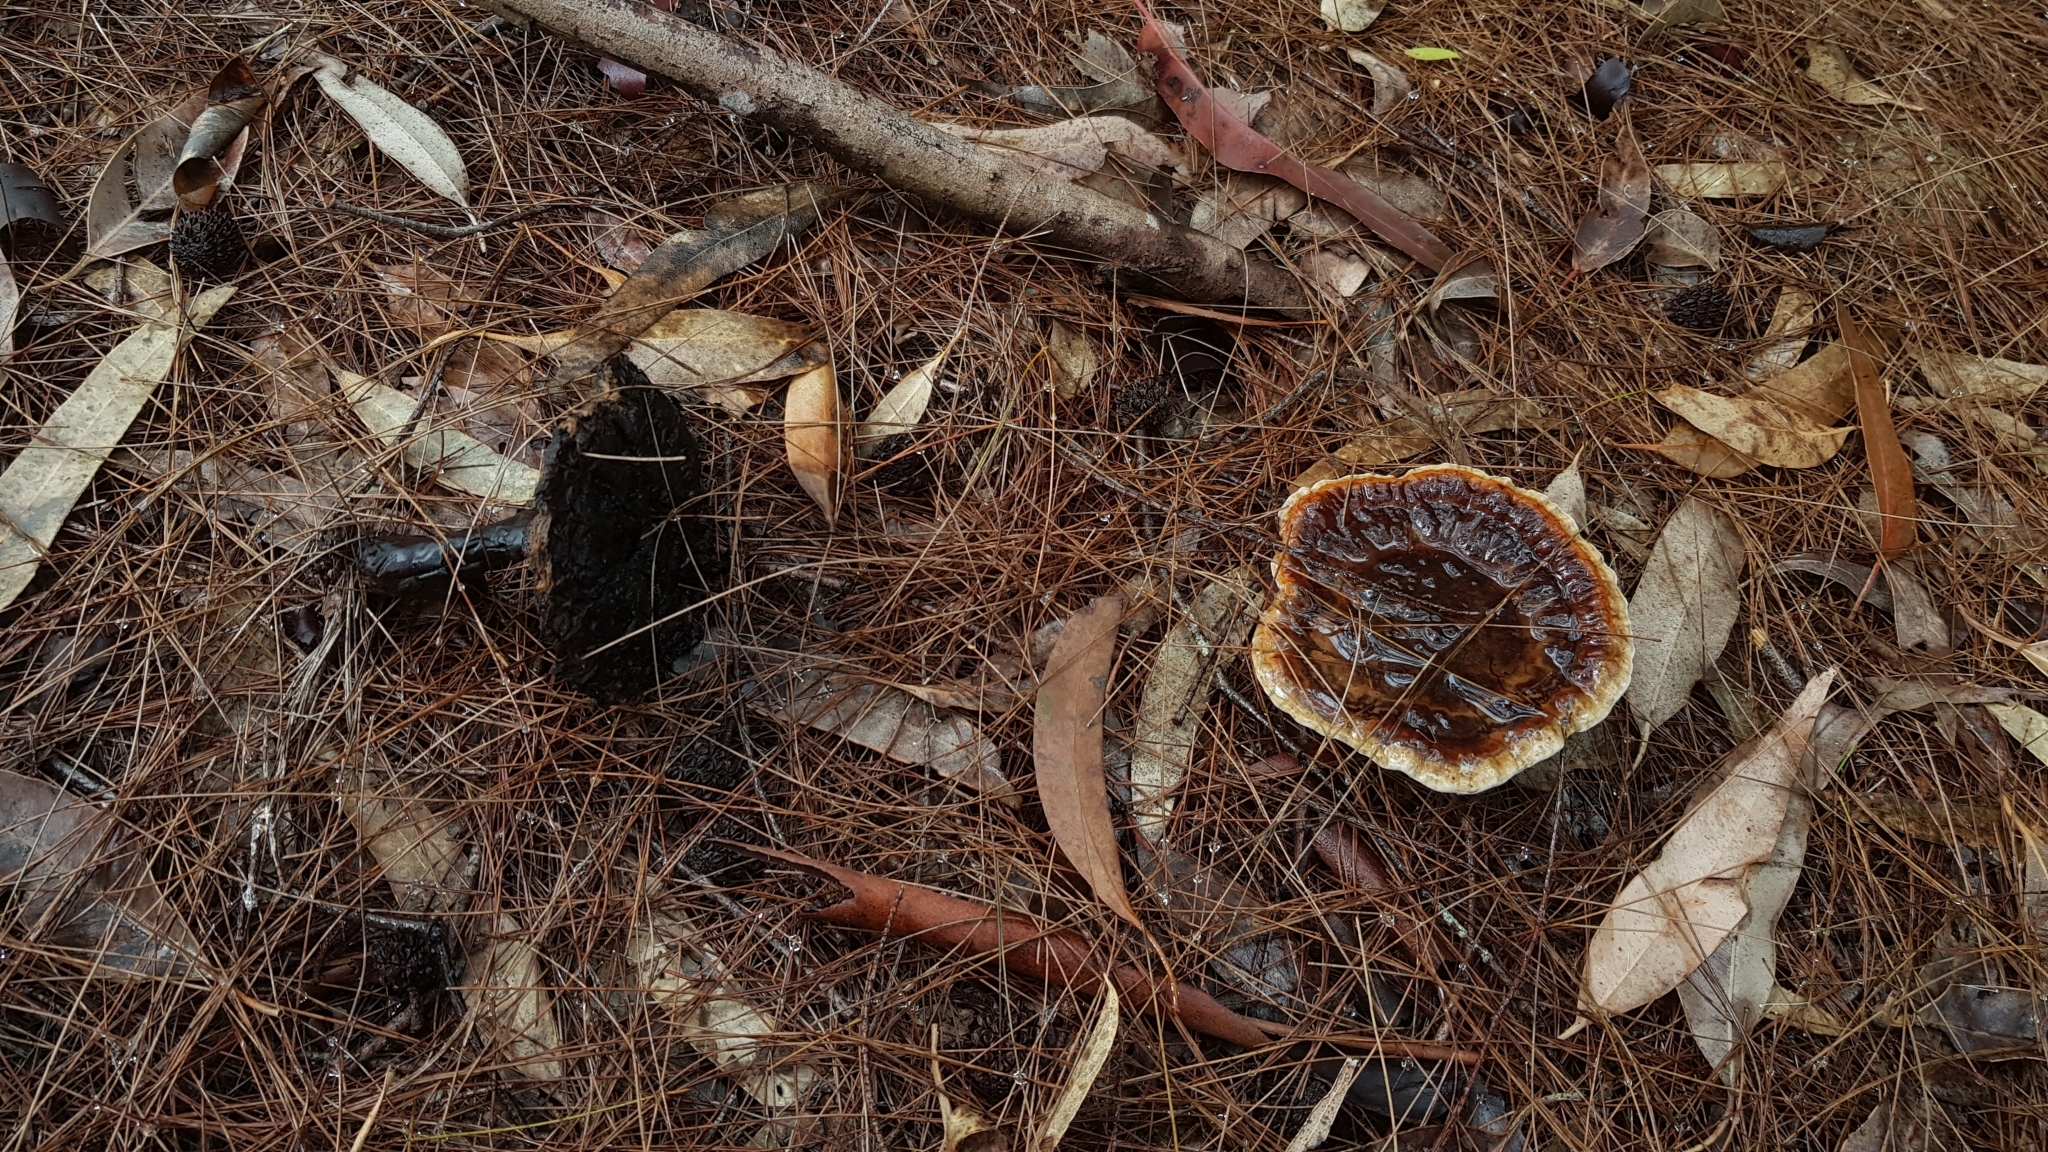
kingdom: Fungi
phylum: Basidiomycota
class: Agaricomycetes
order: Polyporales
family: Ganodermataceae
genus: Sanguinoderma
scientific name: Sanguinoderma rude
